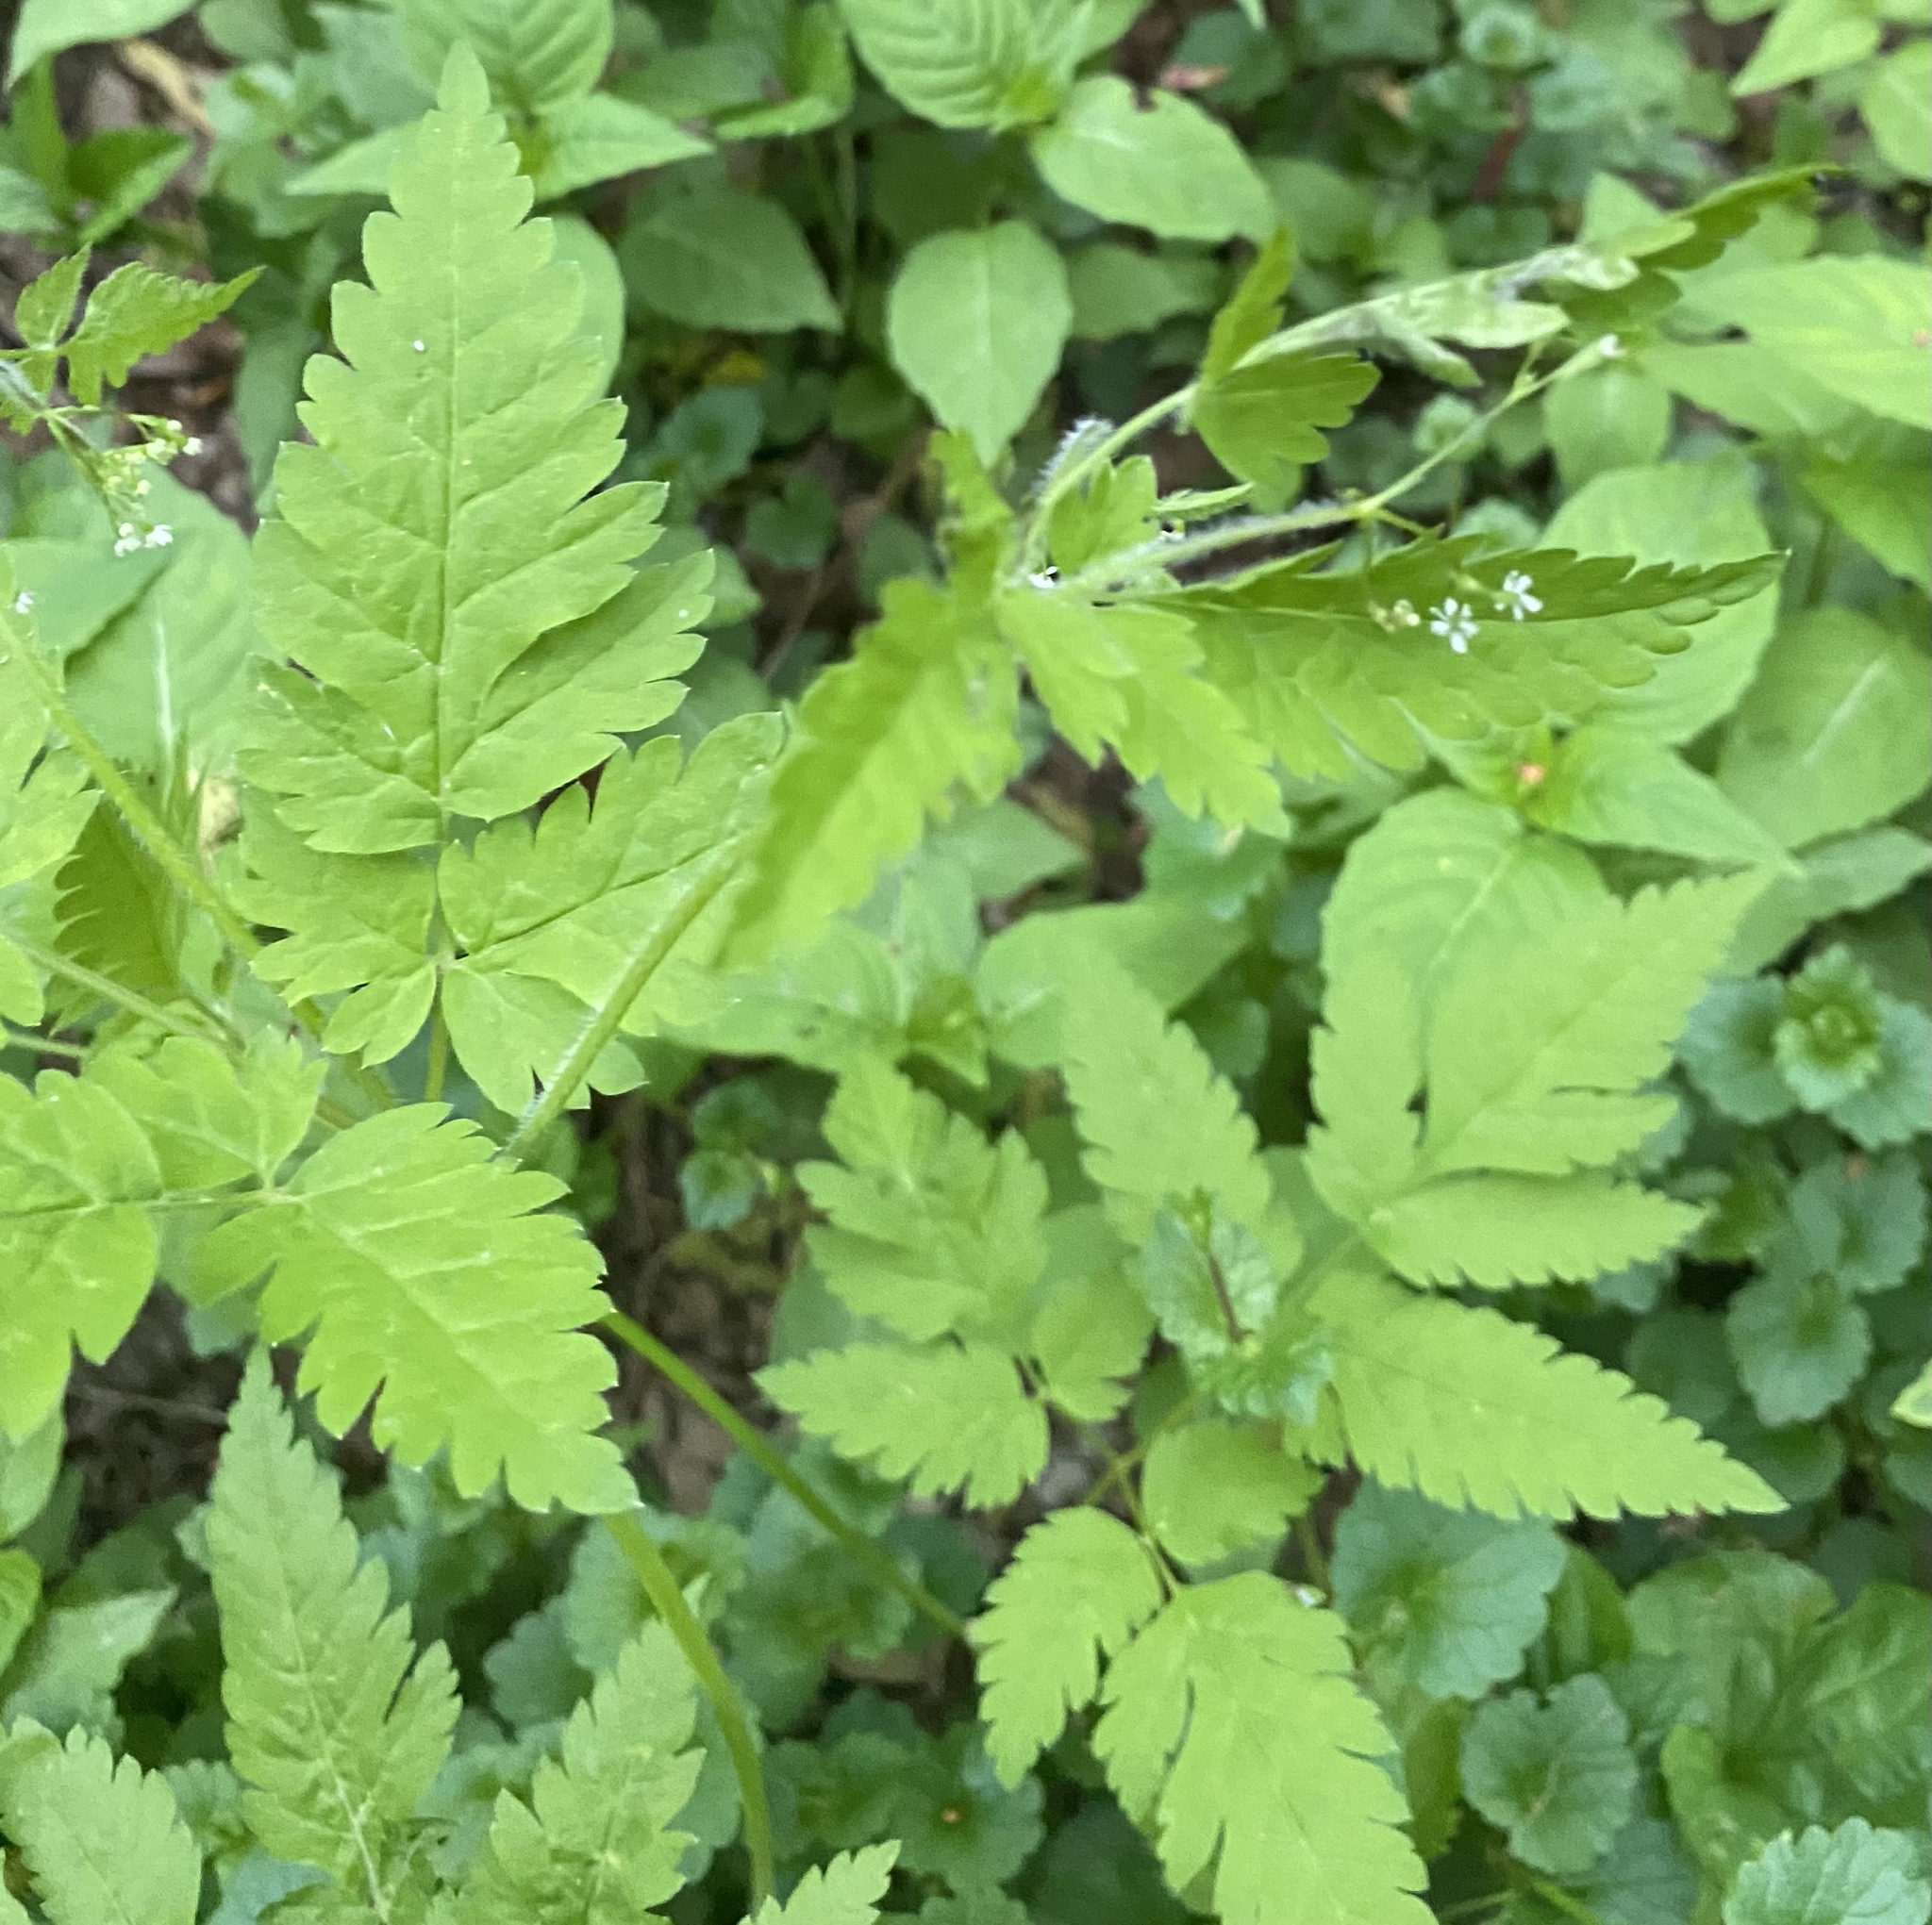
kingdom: Plantae
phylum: Tracheophyta
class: Magnoliopsida
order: Apiales
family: Apiaceae
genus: Osmorhiza
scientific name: Osmorhiza claytonii
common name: Hairy sweet cicely
